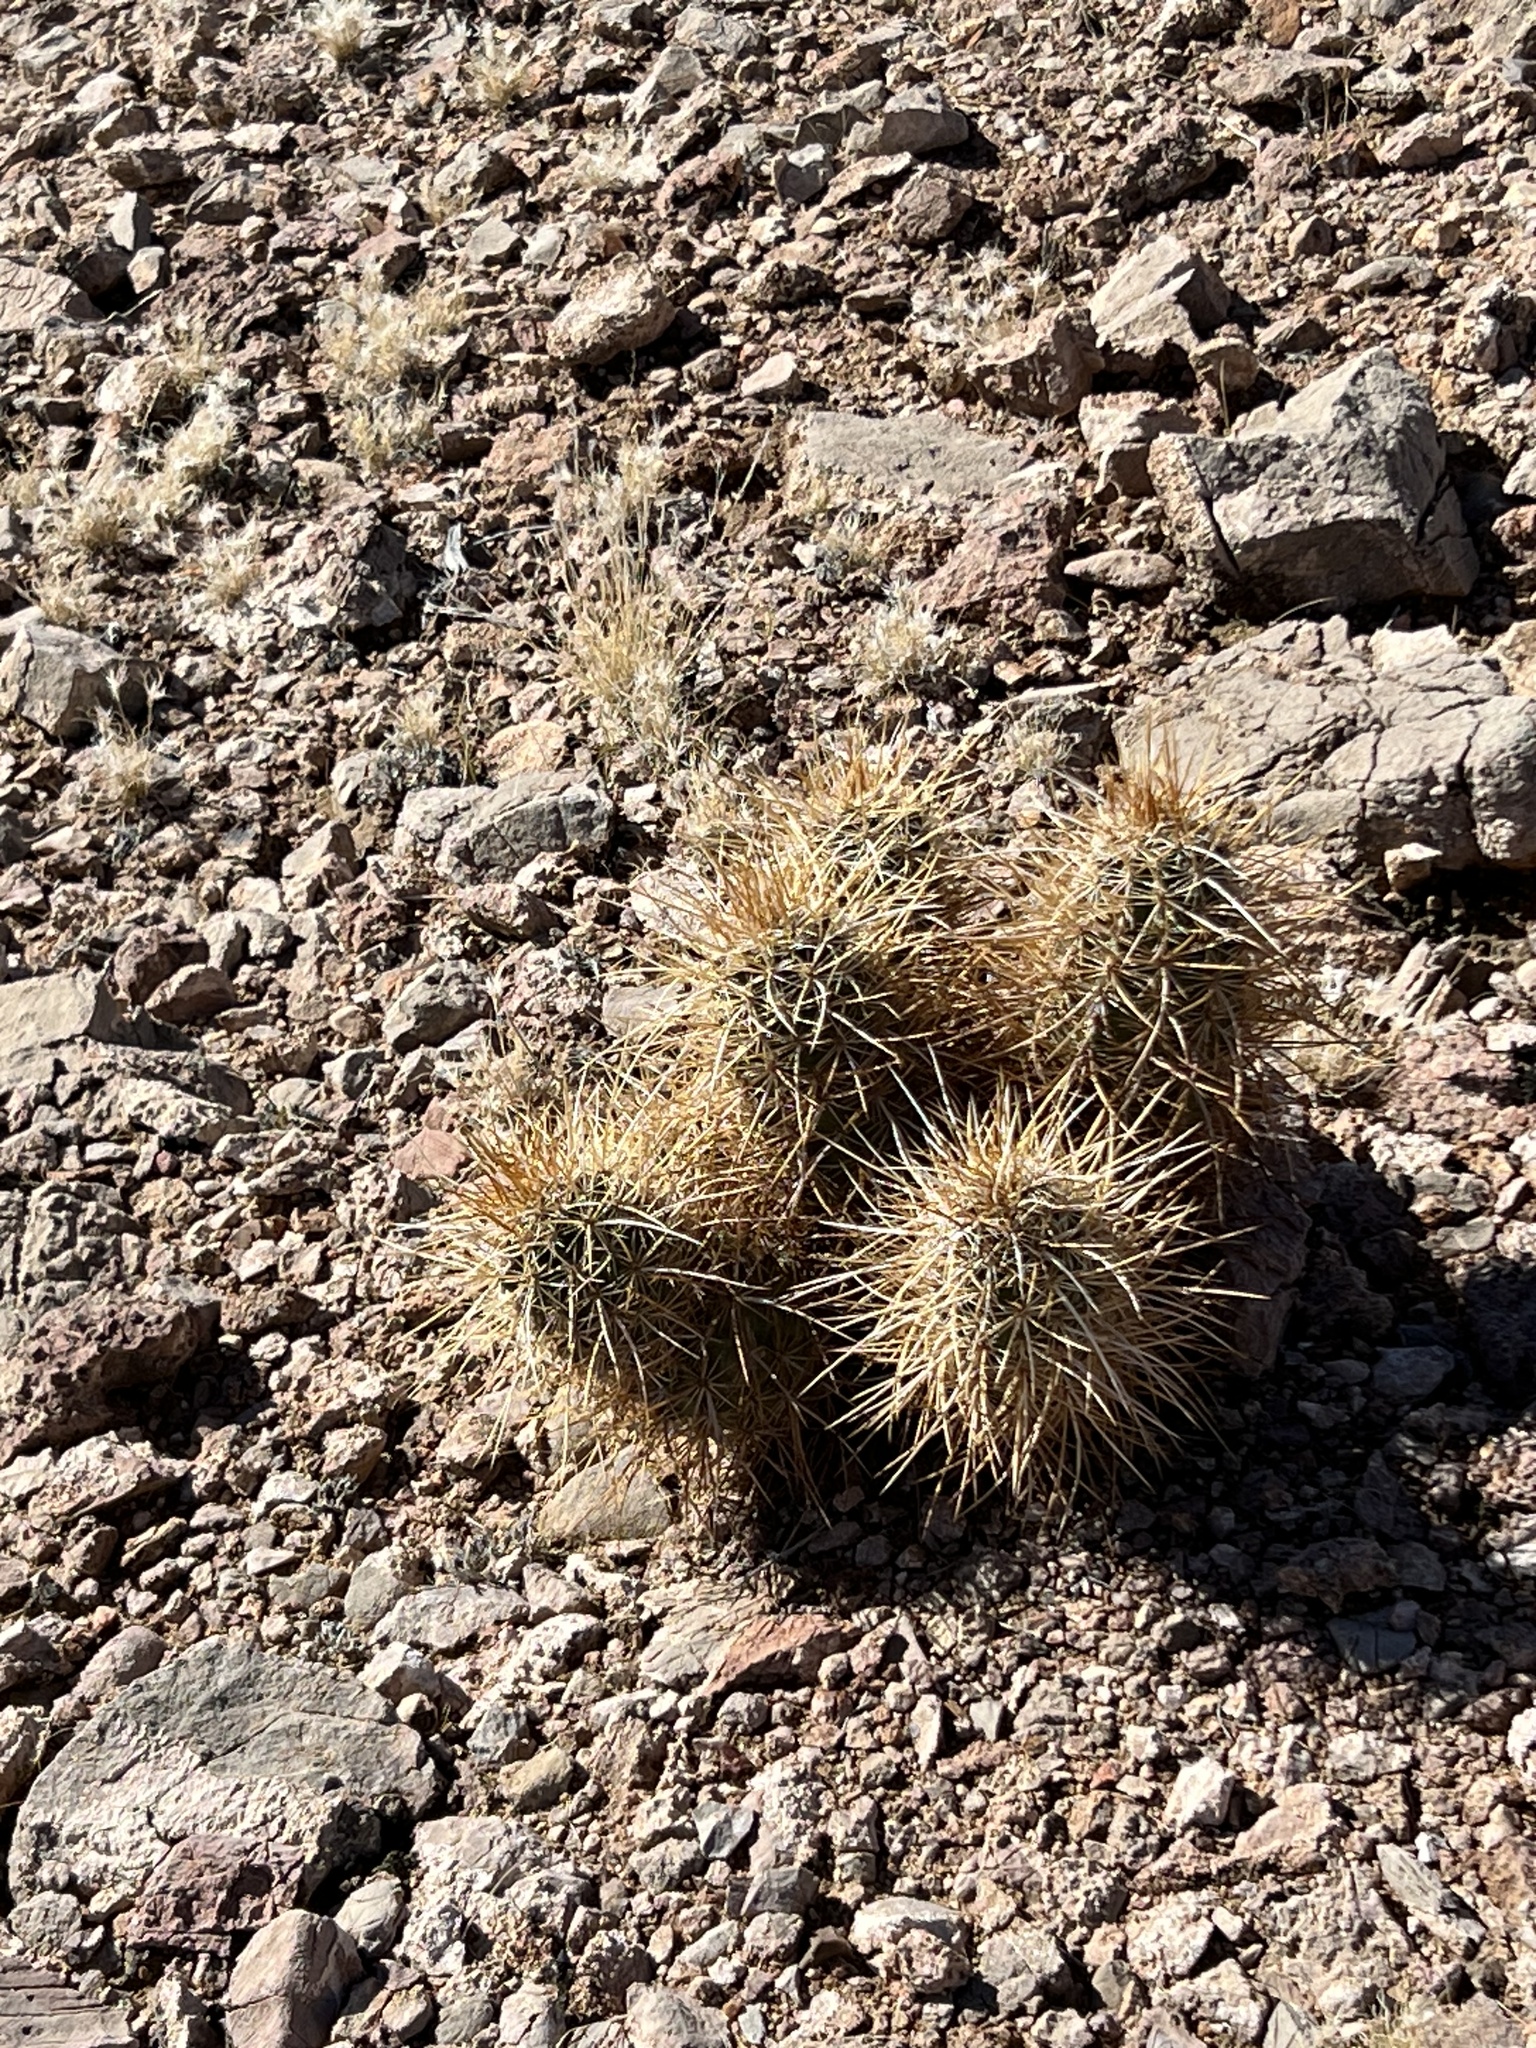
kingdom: Plantae
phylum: Tracheophyta
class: Magnoliopsida
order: Caryophyllales
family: Cactaceae
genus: Echinocereus
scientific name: Echinocereus engelmannii
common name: Engelmann's hedgehog cactus
